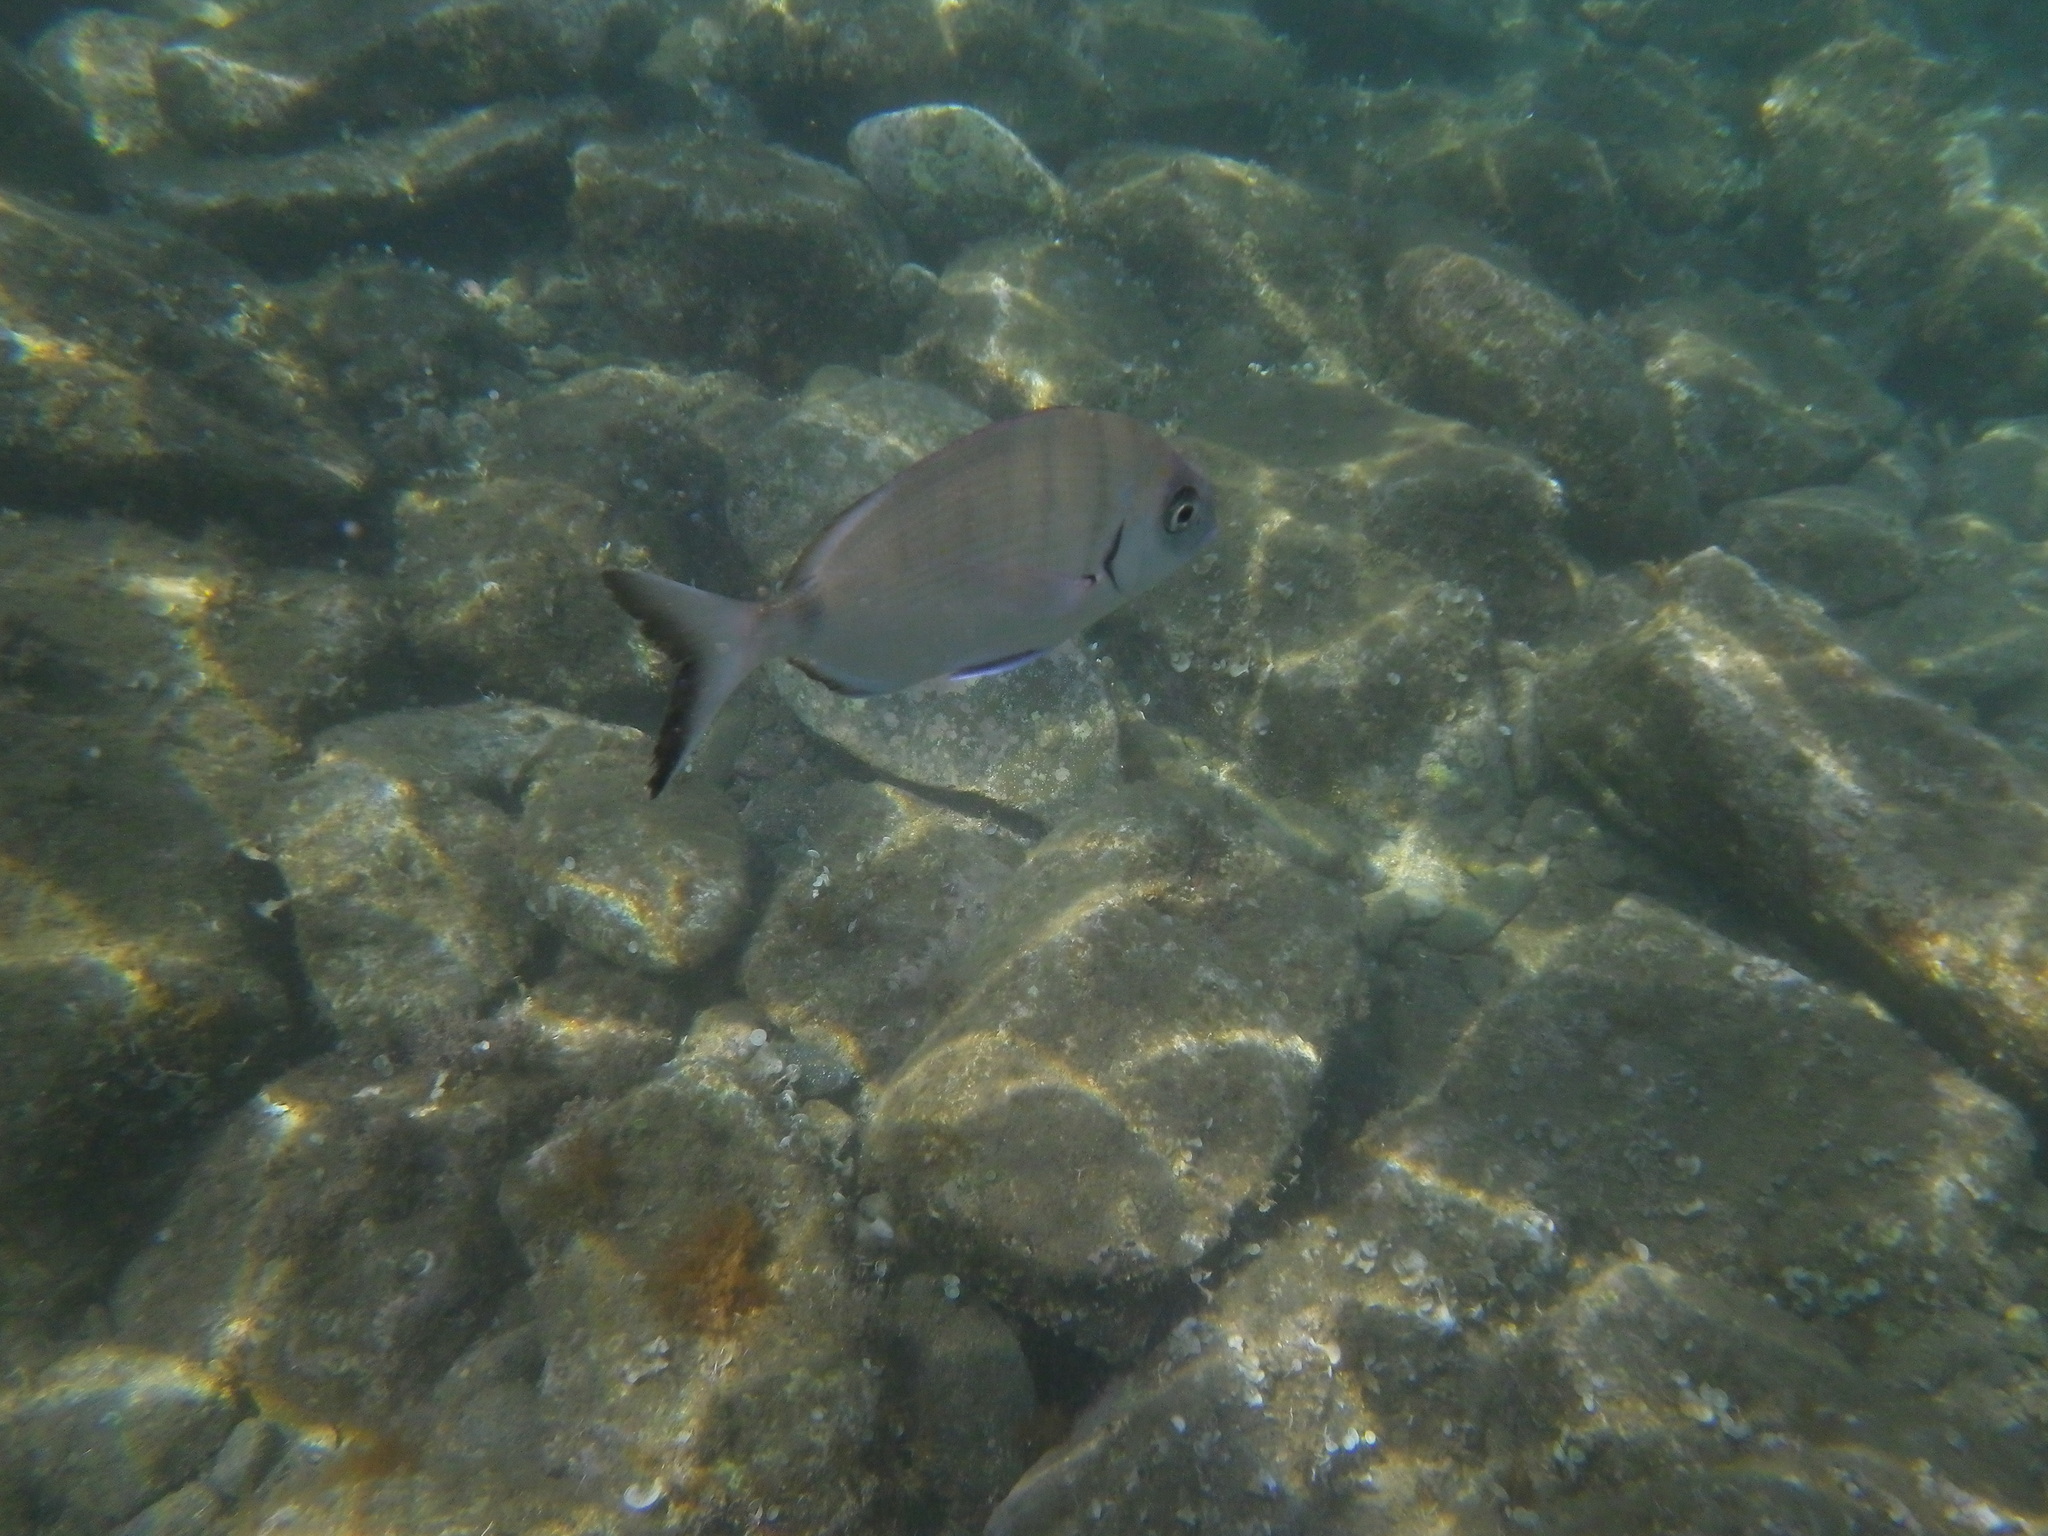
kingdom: Animalia
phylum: Chordata
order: Perciformes
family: Sparidae
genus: Diplodus
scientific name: Diplodus sargus
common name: White seabream
